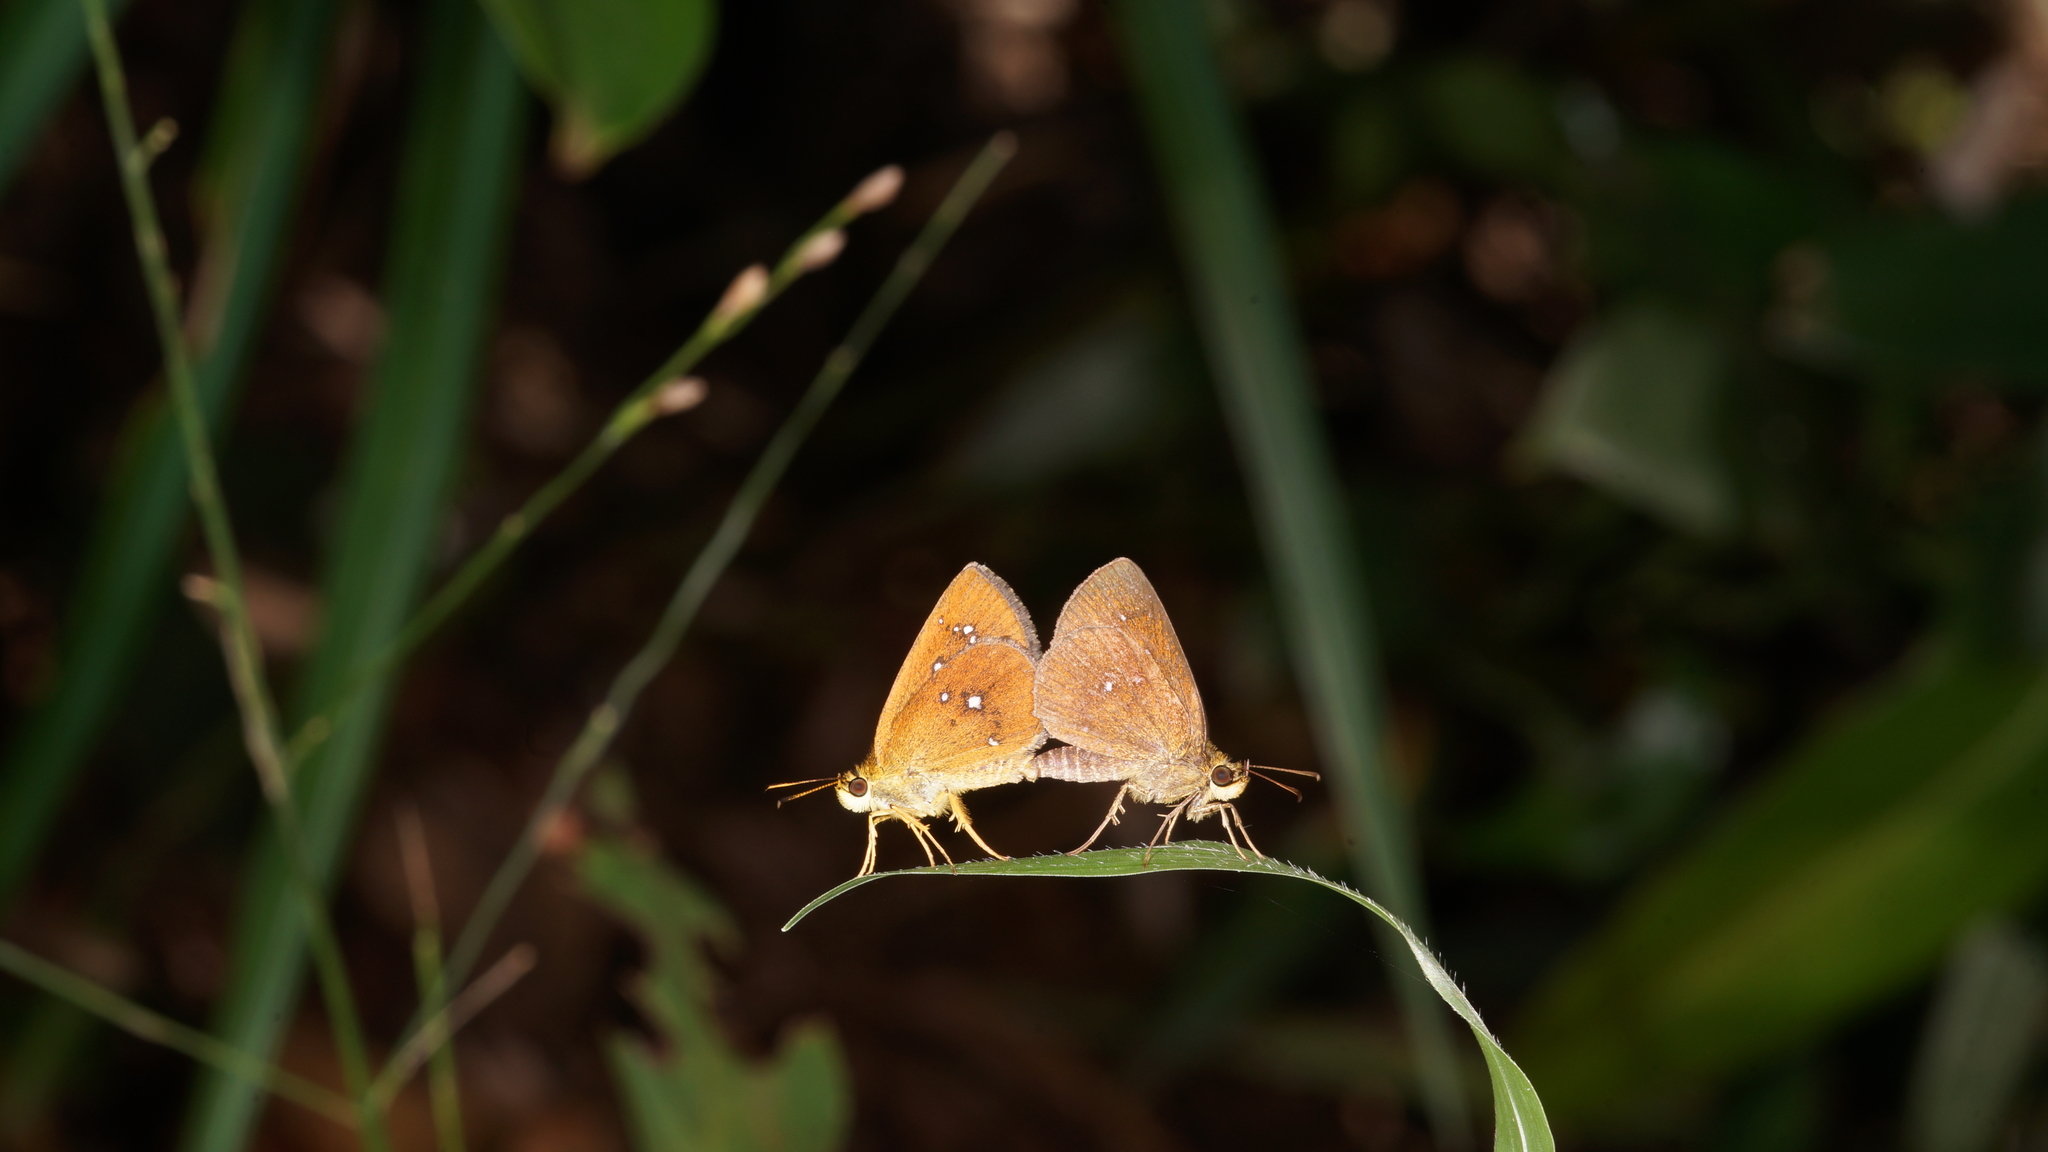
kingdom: Animalia
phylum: Arthropoda
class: Insecta
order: Lepidoptera
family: Hesperiidae
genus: Iambrix
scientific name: Iambrix salsala
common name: Chestnut bob
